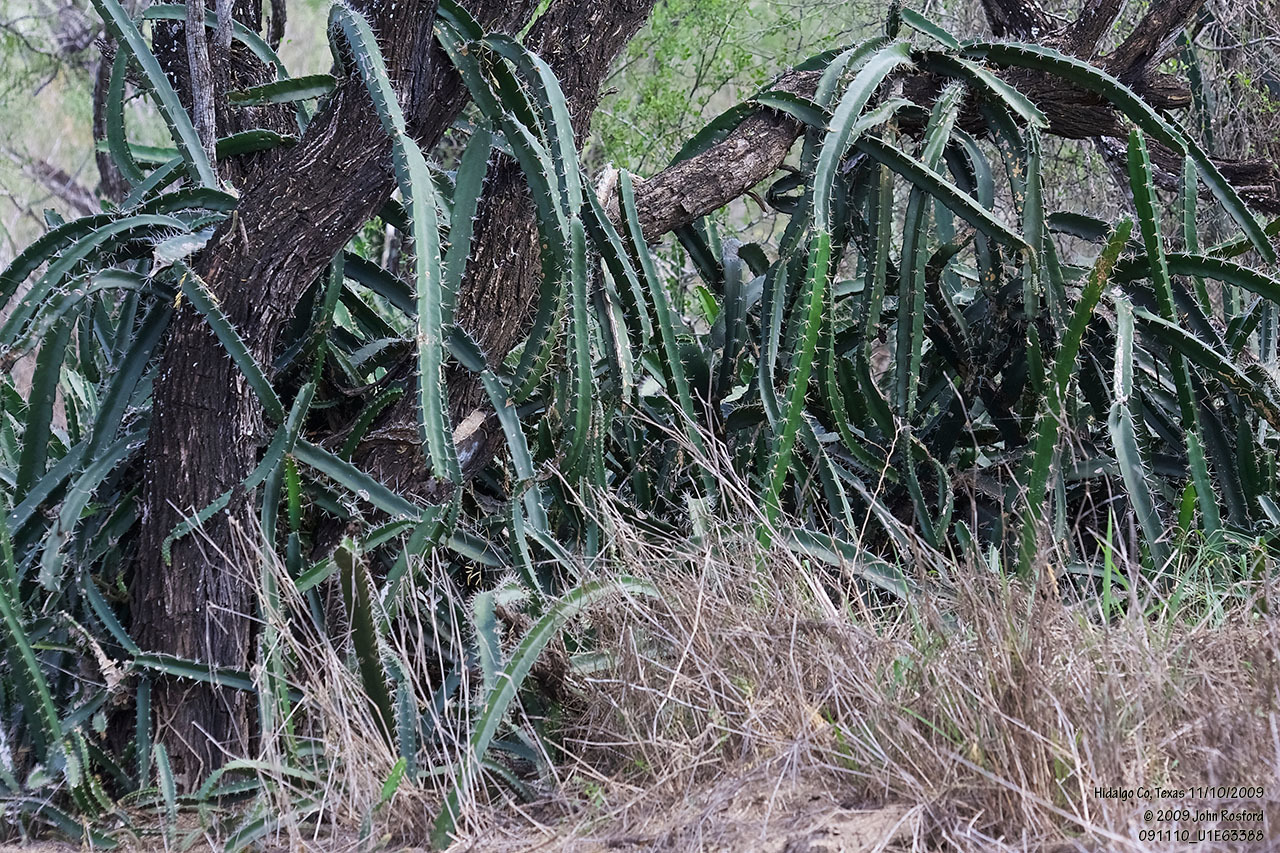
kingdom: Plantae
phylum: Tracheophyta
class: Magnoliopsida
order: Caryophyllales
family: Cactaceae
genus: Acanthocereus
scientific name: Acanthocereus tetragonus
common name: Triangle cactus
